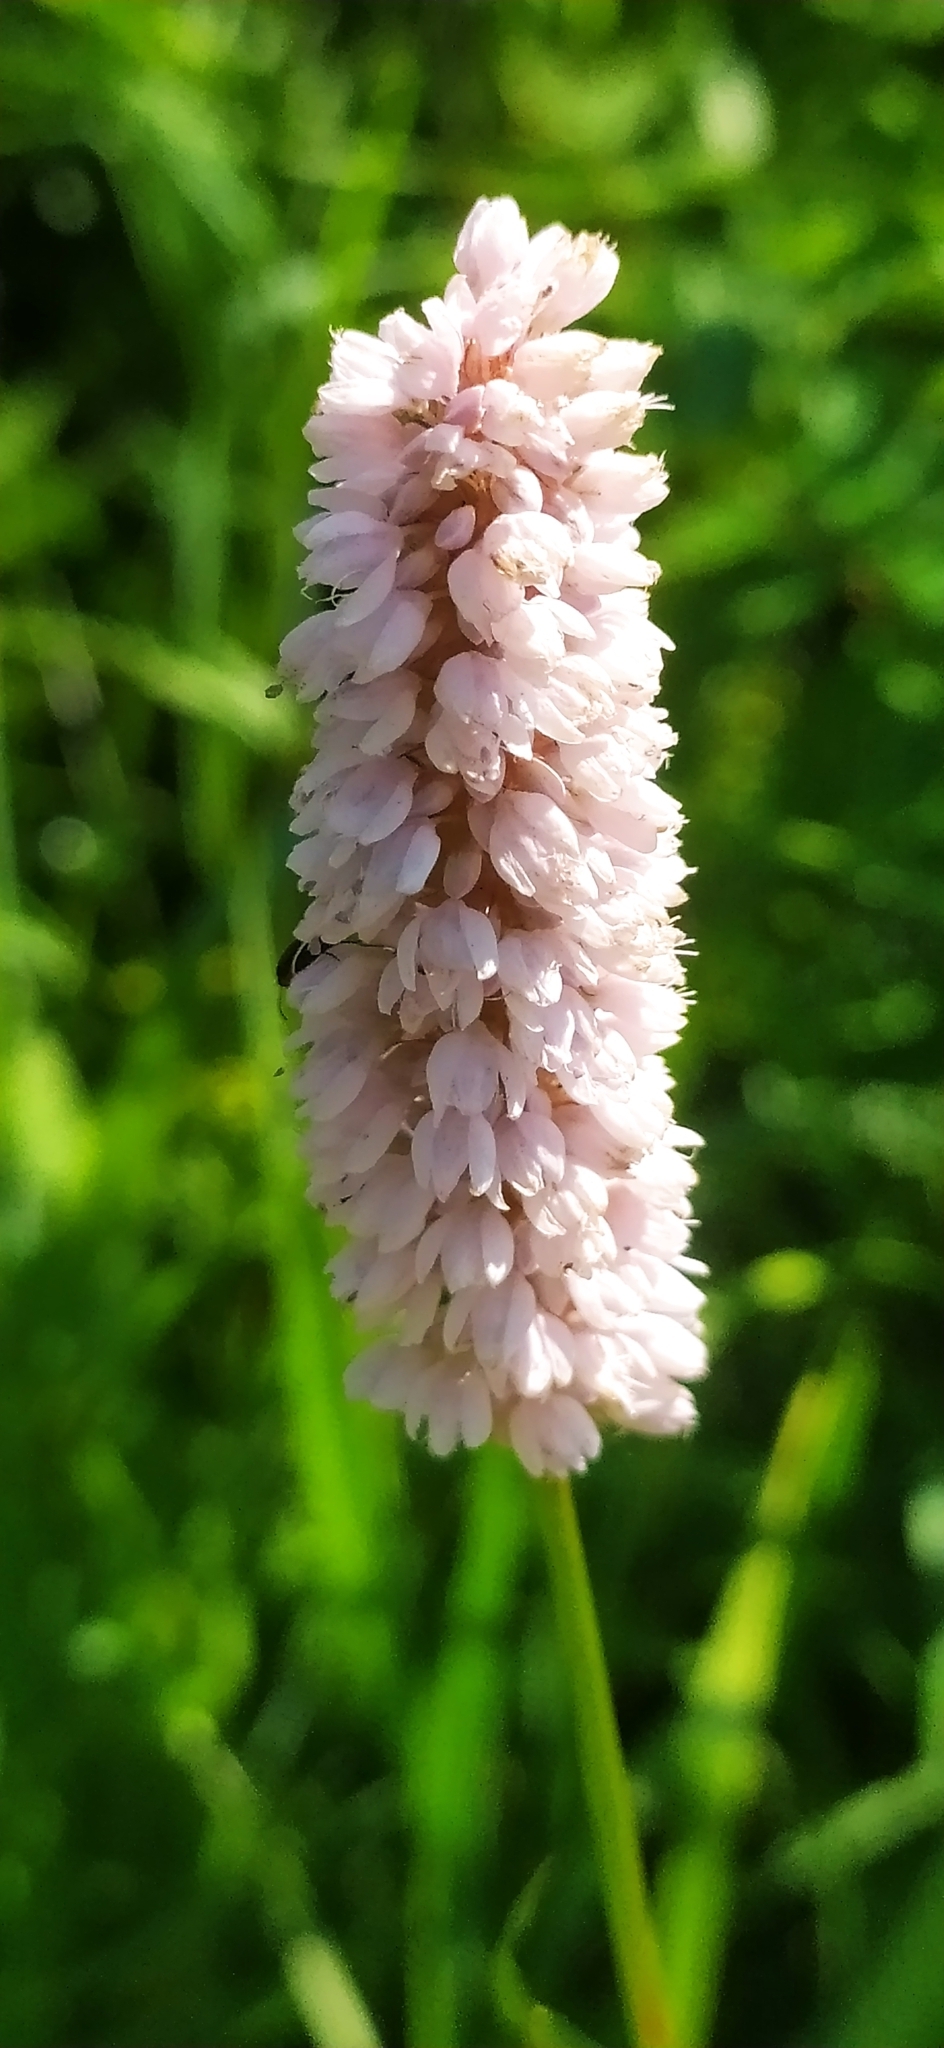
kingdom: Plantae
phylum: Tracheophyta
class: Magnoliopsida
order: Caryophyllales
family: Polygonaceae
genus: Bistorta
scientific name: Bistorta officinalis
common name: Common bistort
